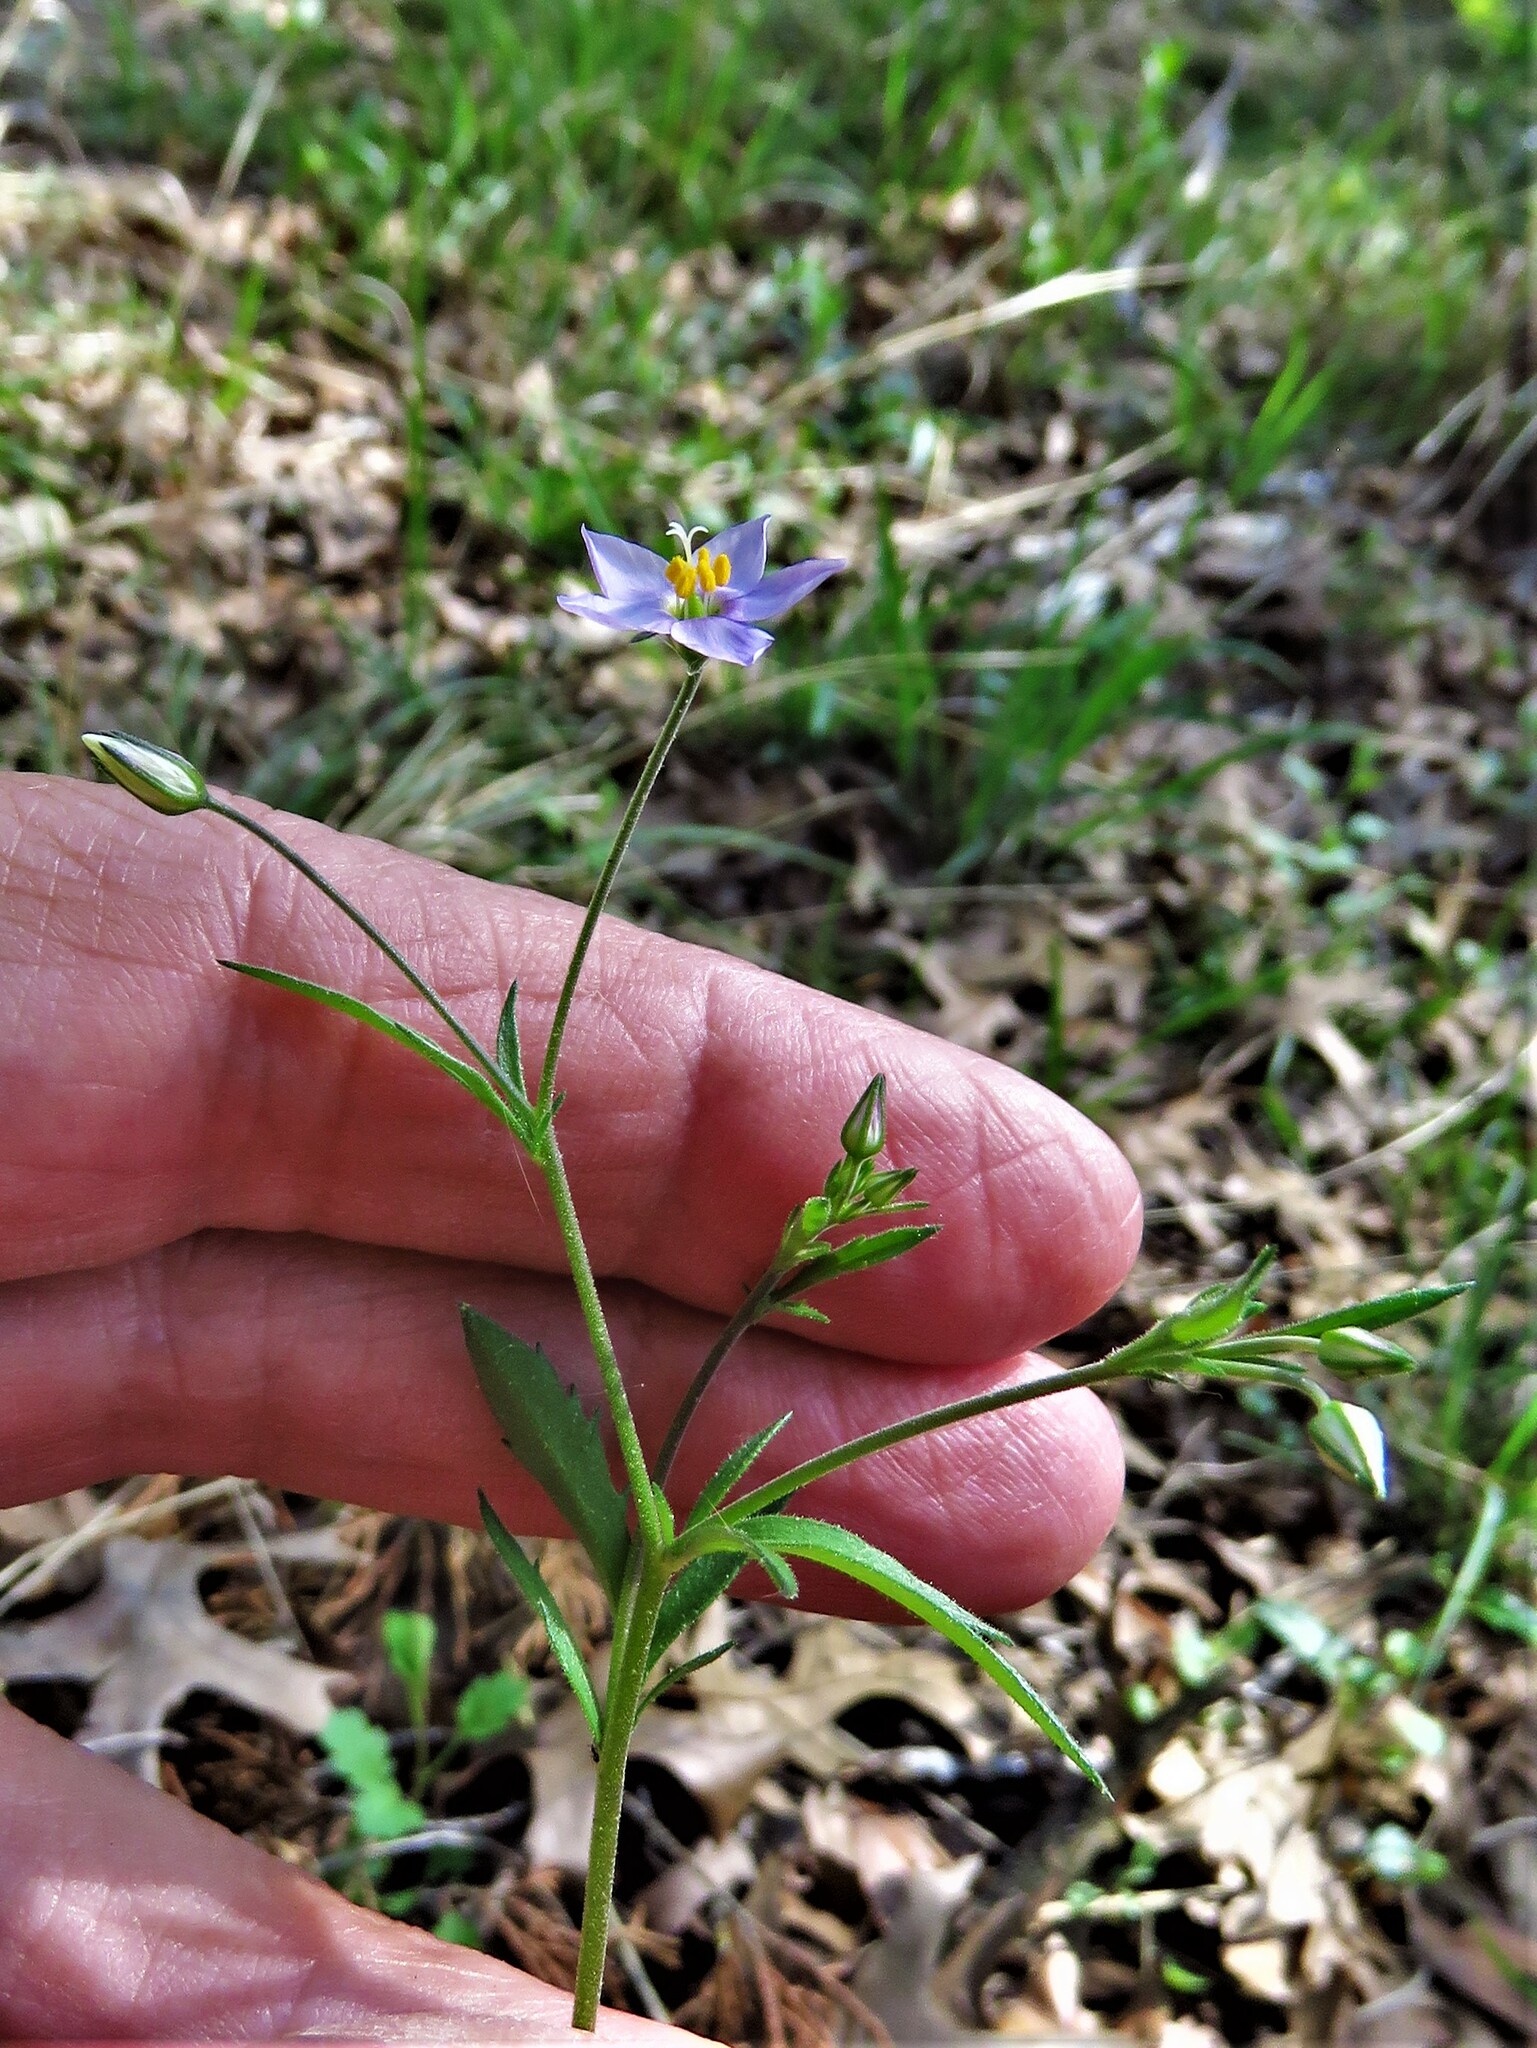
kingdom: Plantae
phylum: Tracheophyta
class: Magnoliopsida
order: Ericales
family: Polemoniaceae
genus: Giliastrum
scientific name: Giliastrum incisum
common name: Splitleaf gilia
